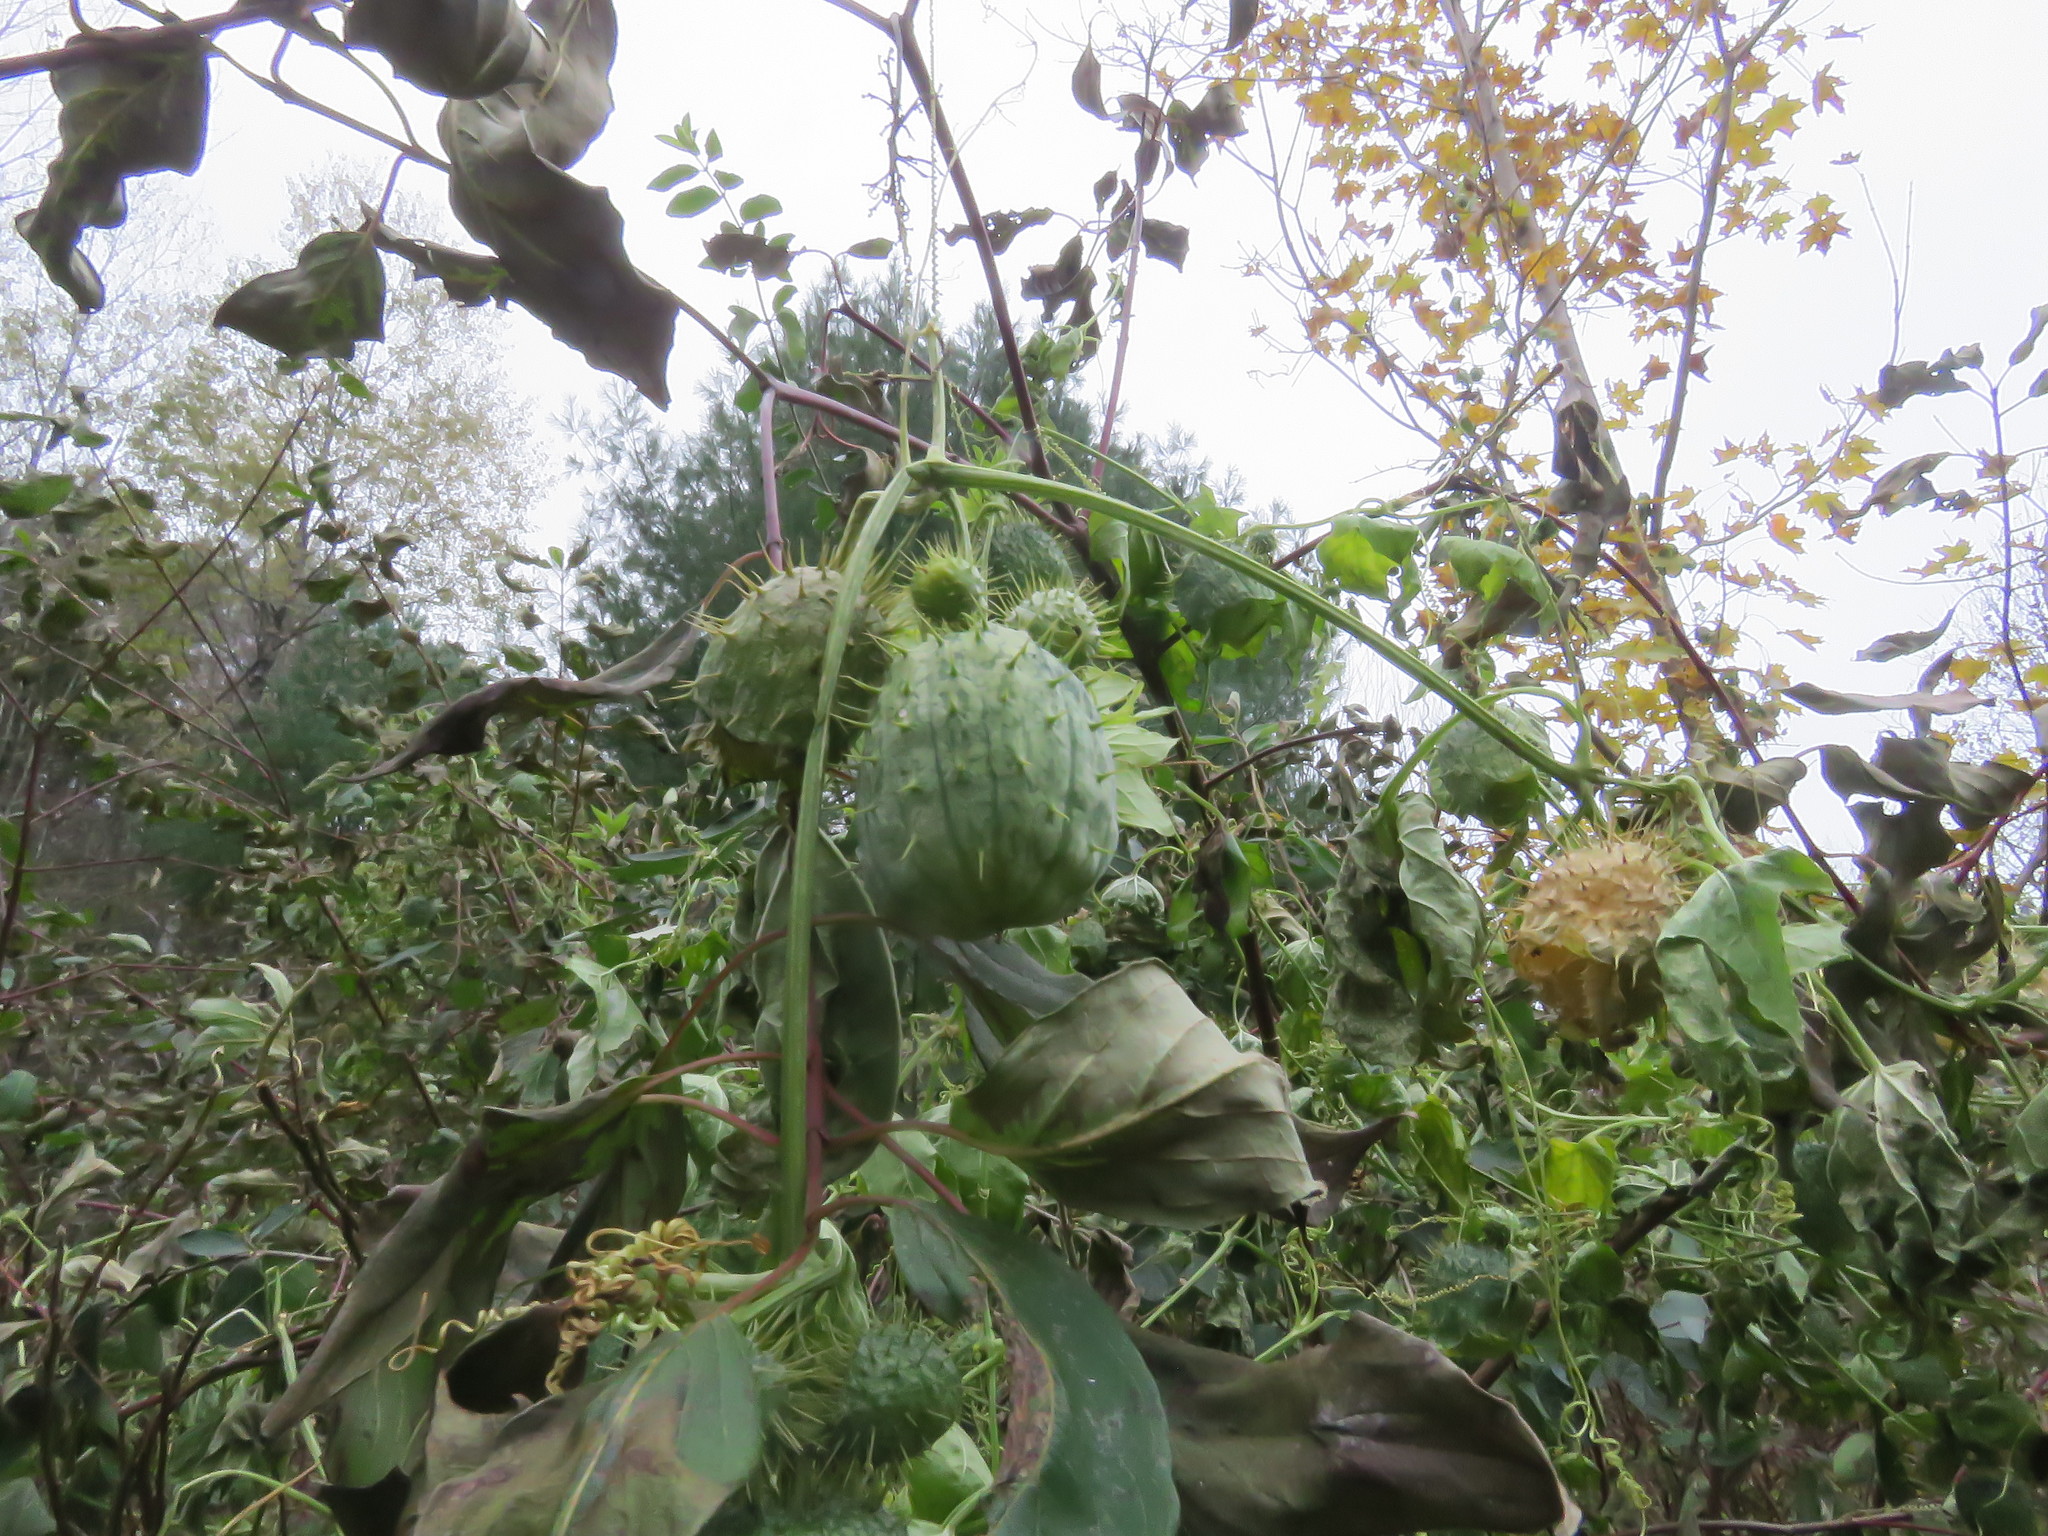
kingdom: Plantae
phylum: Tracheophyta
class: Magnoliopsida
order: Cucurbitales
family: Cucurbitaceae
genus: Echinocystis
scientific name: Echinocystis lobata
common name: Wild cucumber
